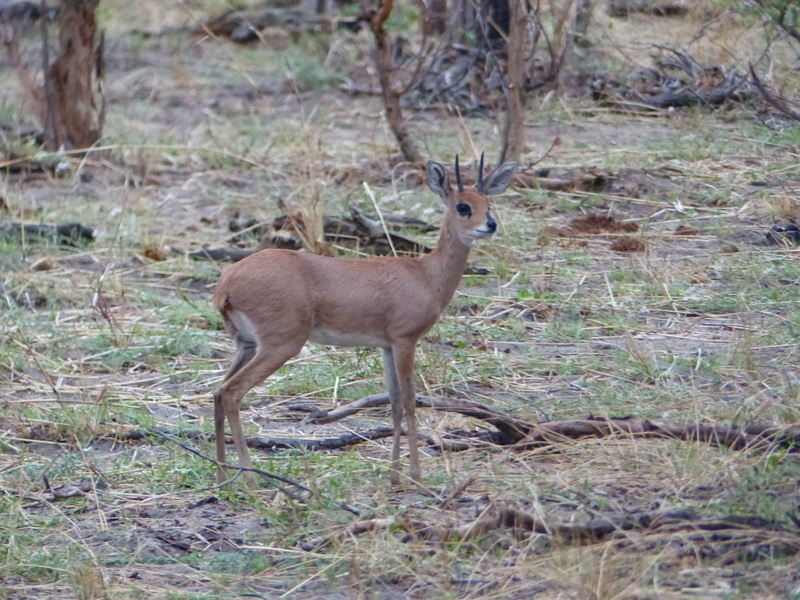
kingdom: Animalia
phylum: Chordata
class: Mammalia
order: Artiodactyla
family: Bovidae
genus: Raphicerus
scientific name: Raphicerus campestris
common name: Steenbok
